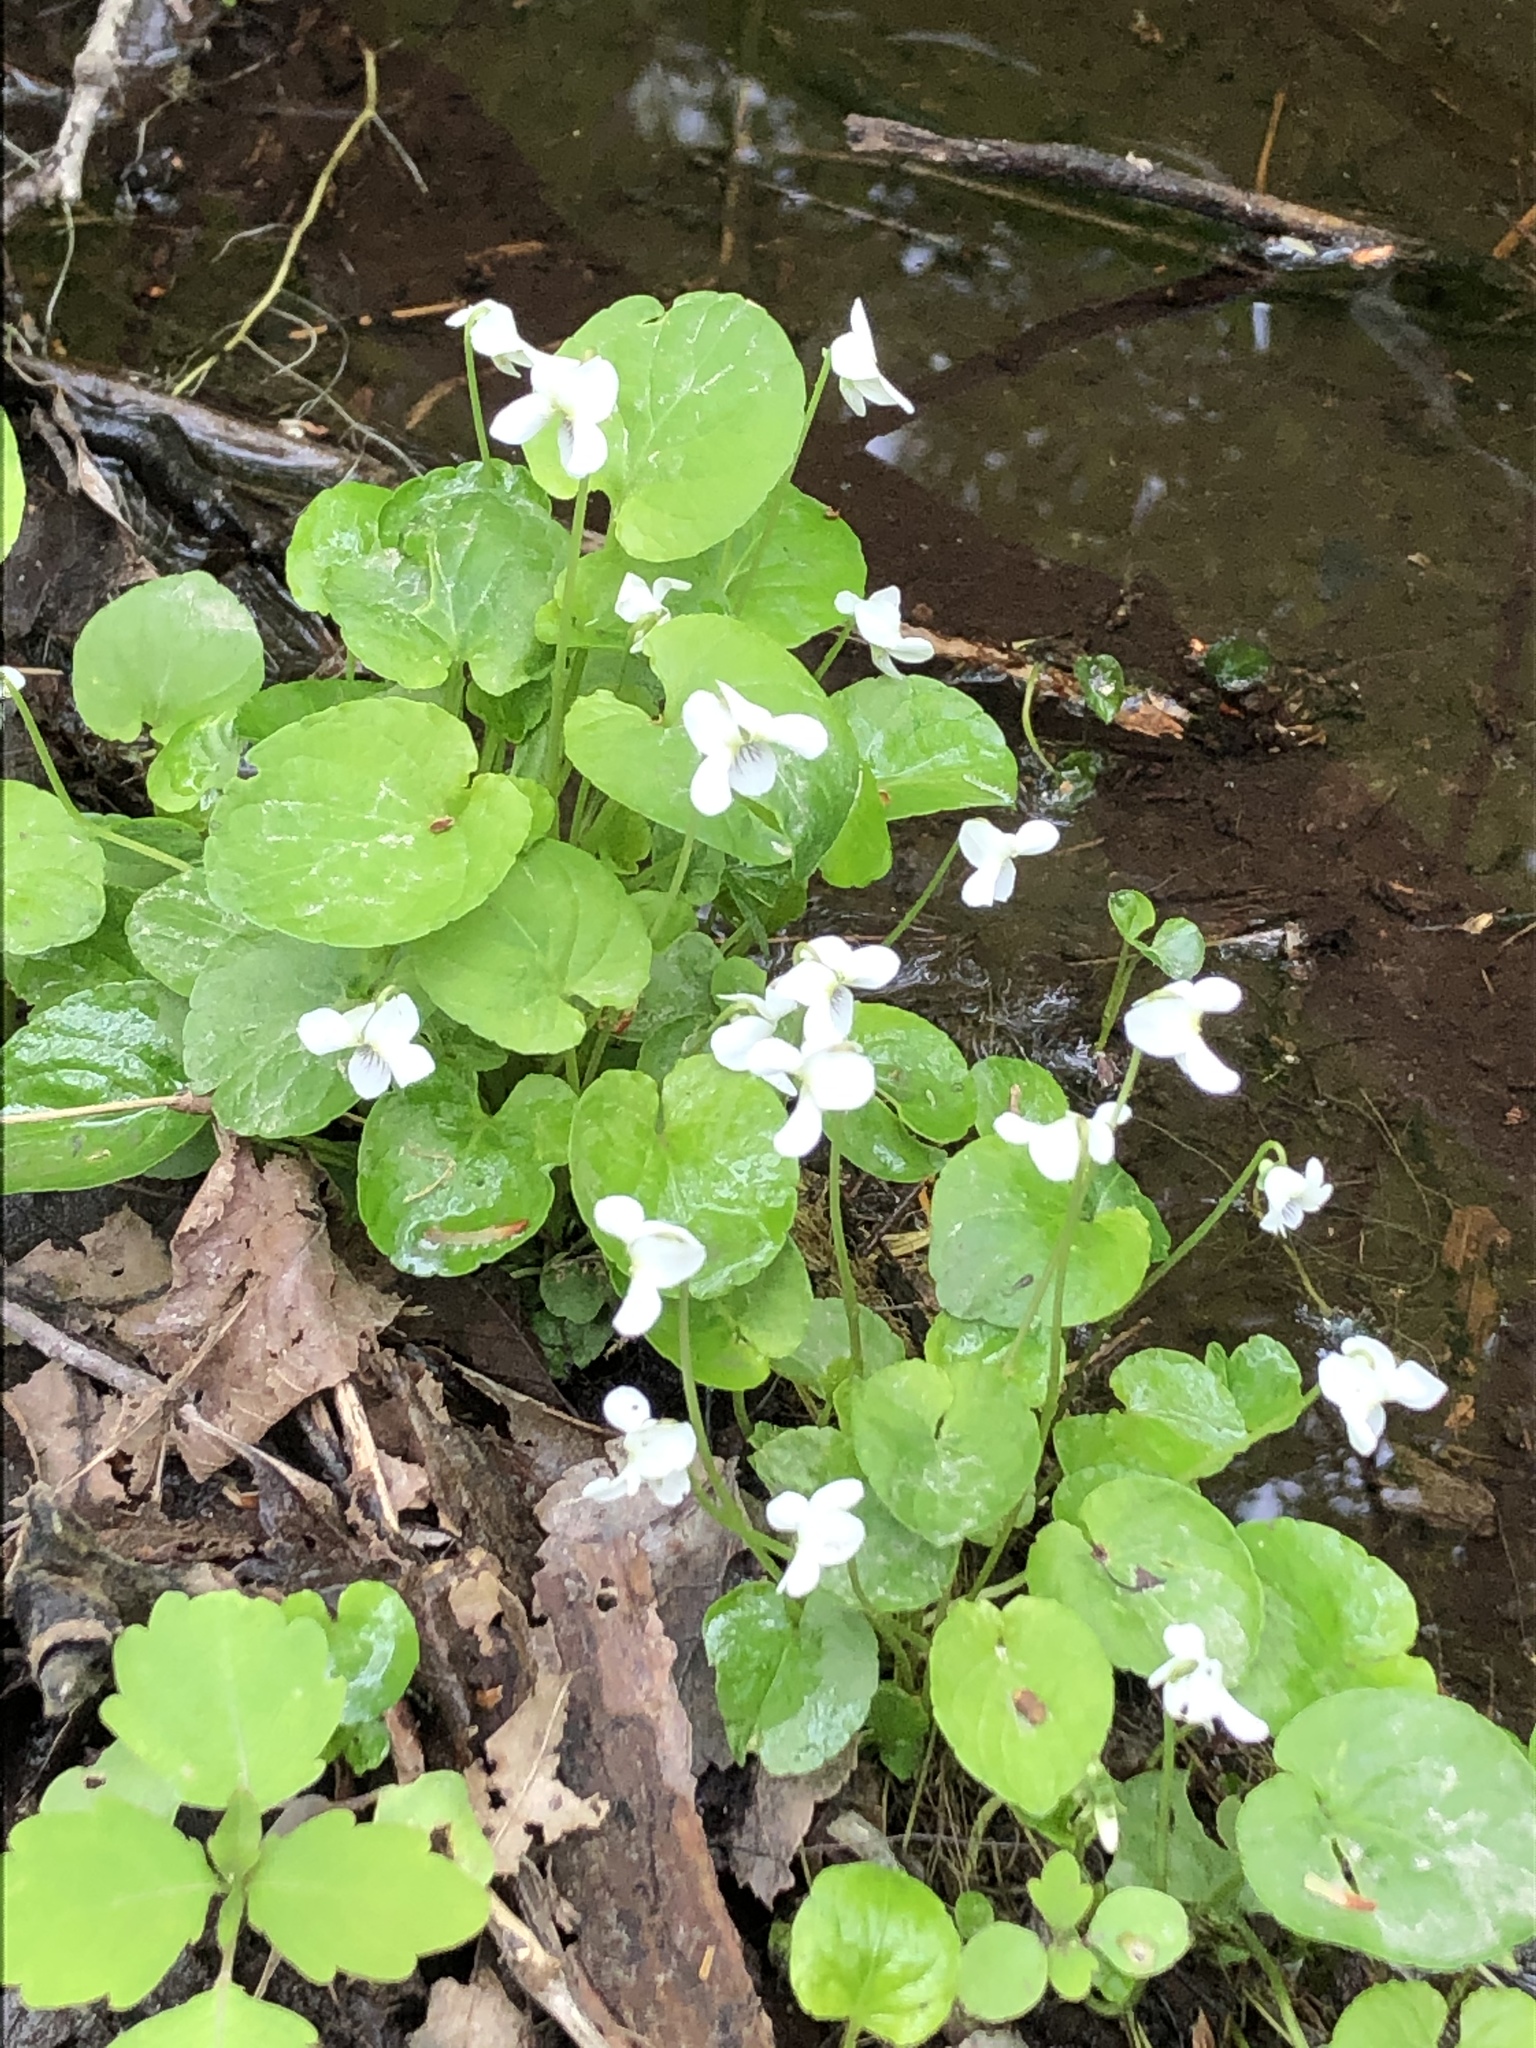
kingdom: Plantae
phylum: Tracheophyta
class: Magnoliopsida
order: Malpighiales
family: Violaceae
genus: Viola
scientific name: Viola minuscula
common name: Northern white violet
